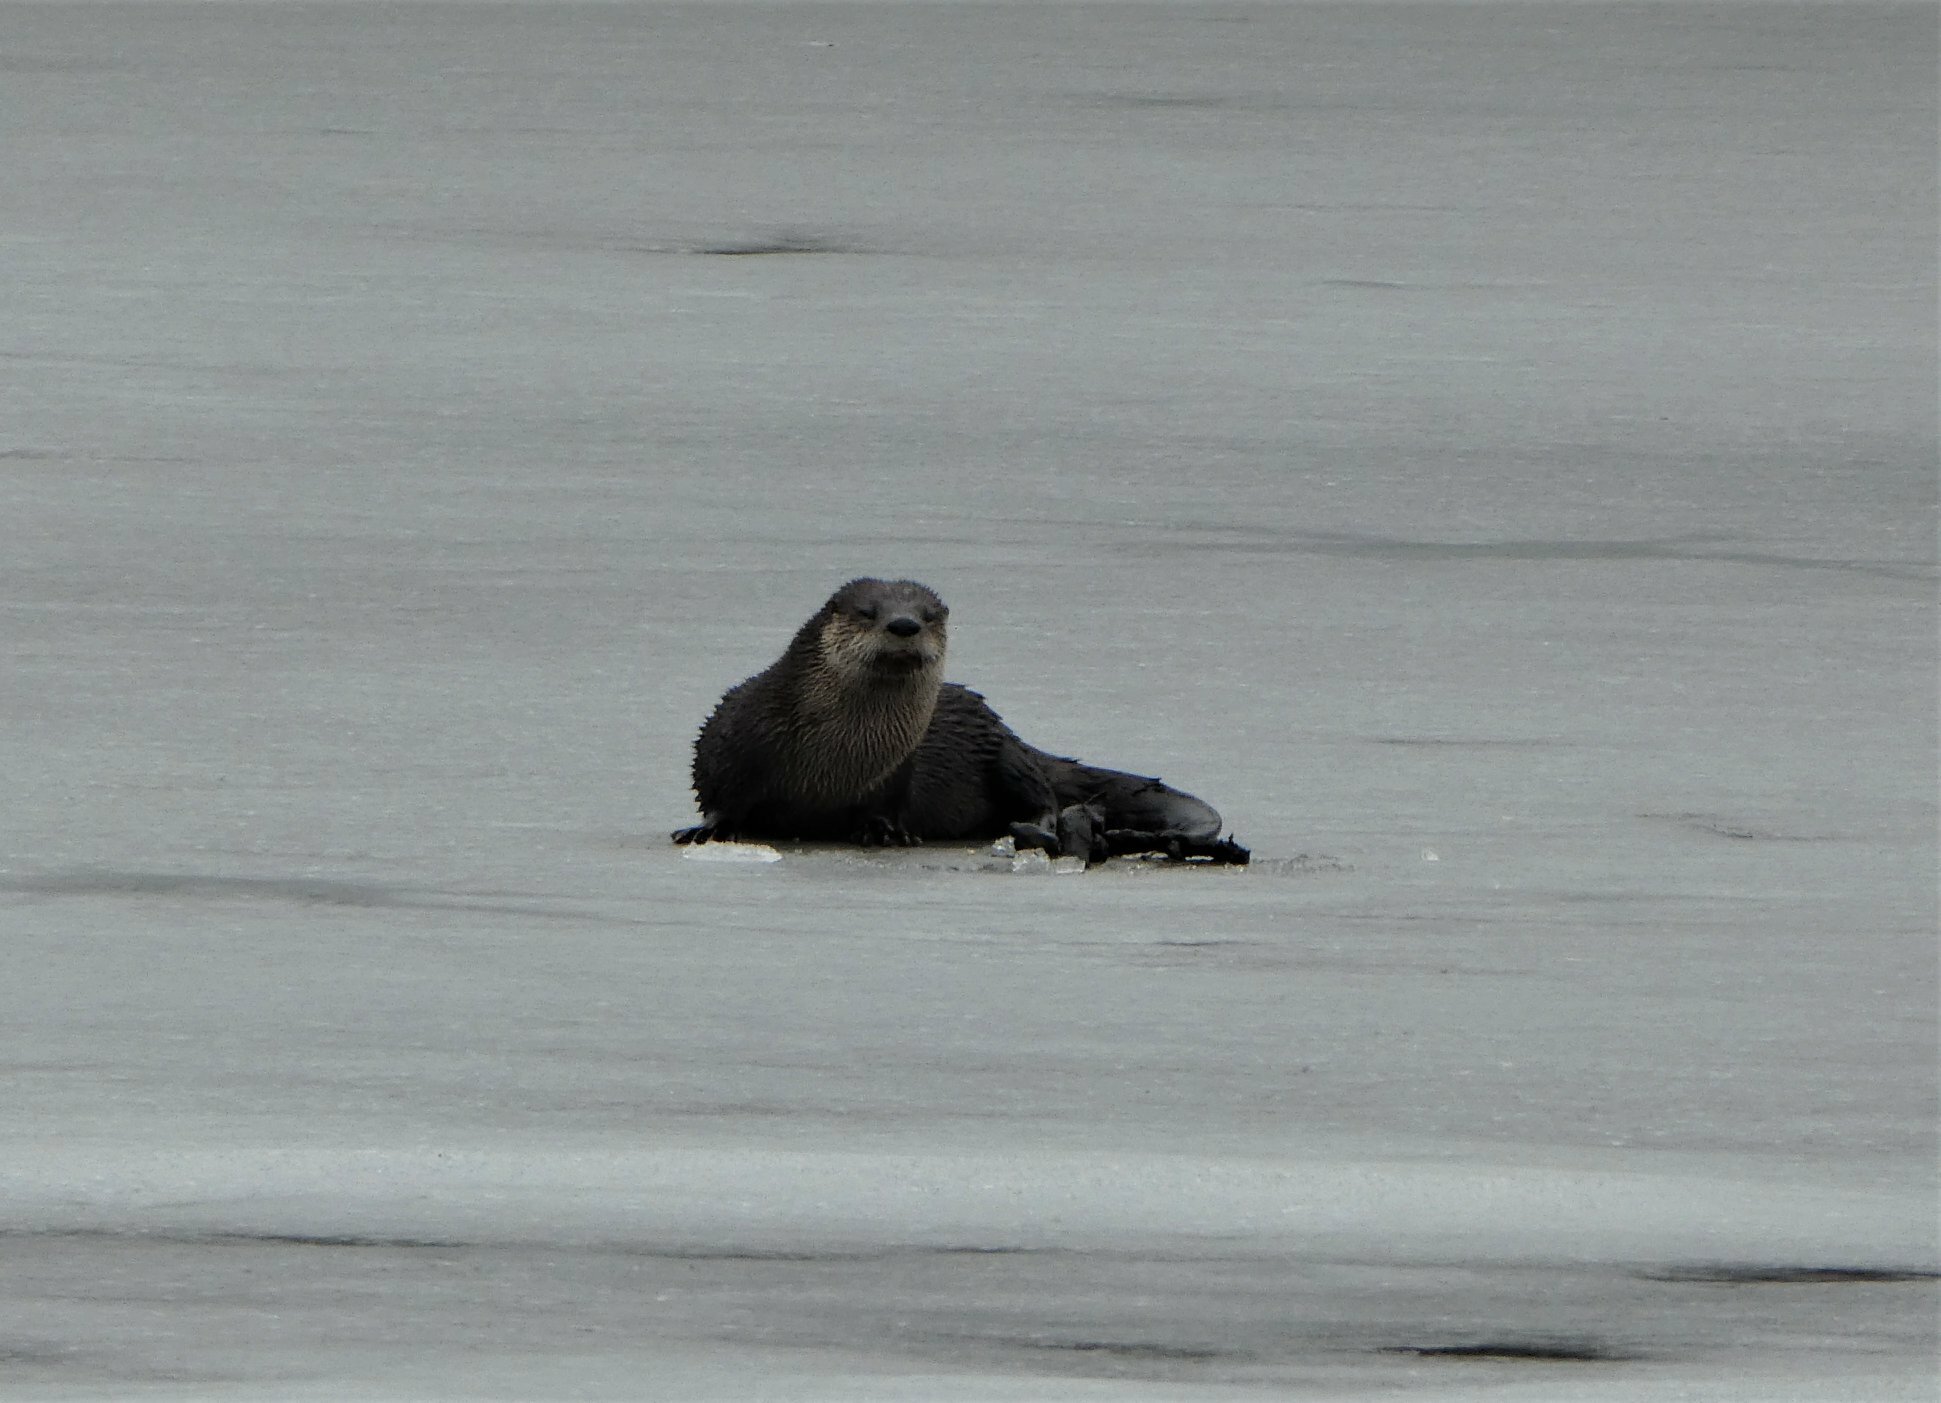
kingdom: Animalia
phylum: Chordata
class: Mammalia
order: Carnivora
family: Mustelidae
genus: Lontra
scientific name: Lontra canadensis
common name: North american river otter
